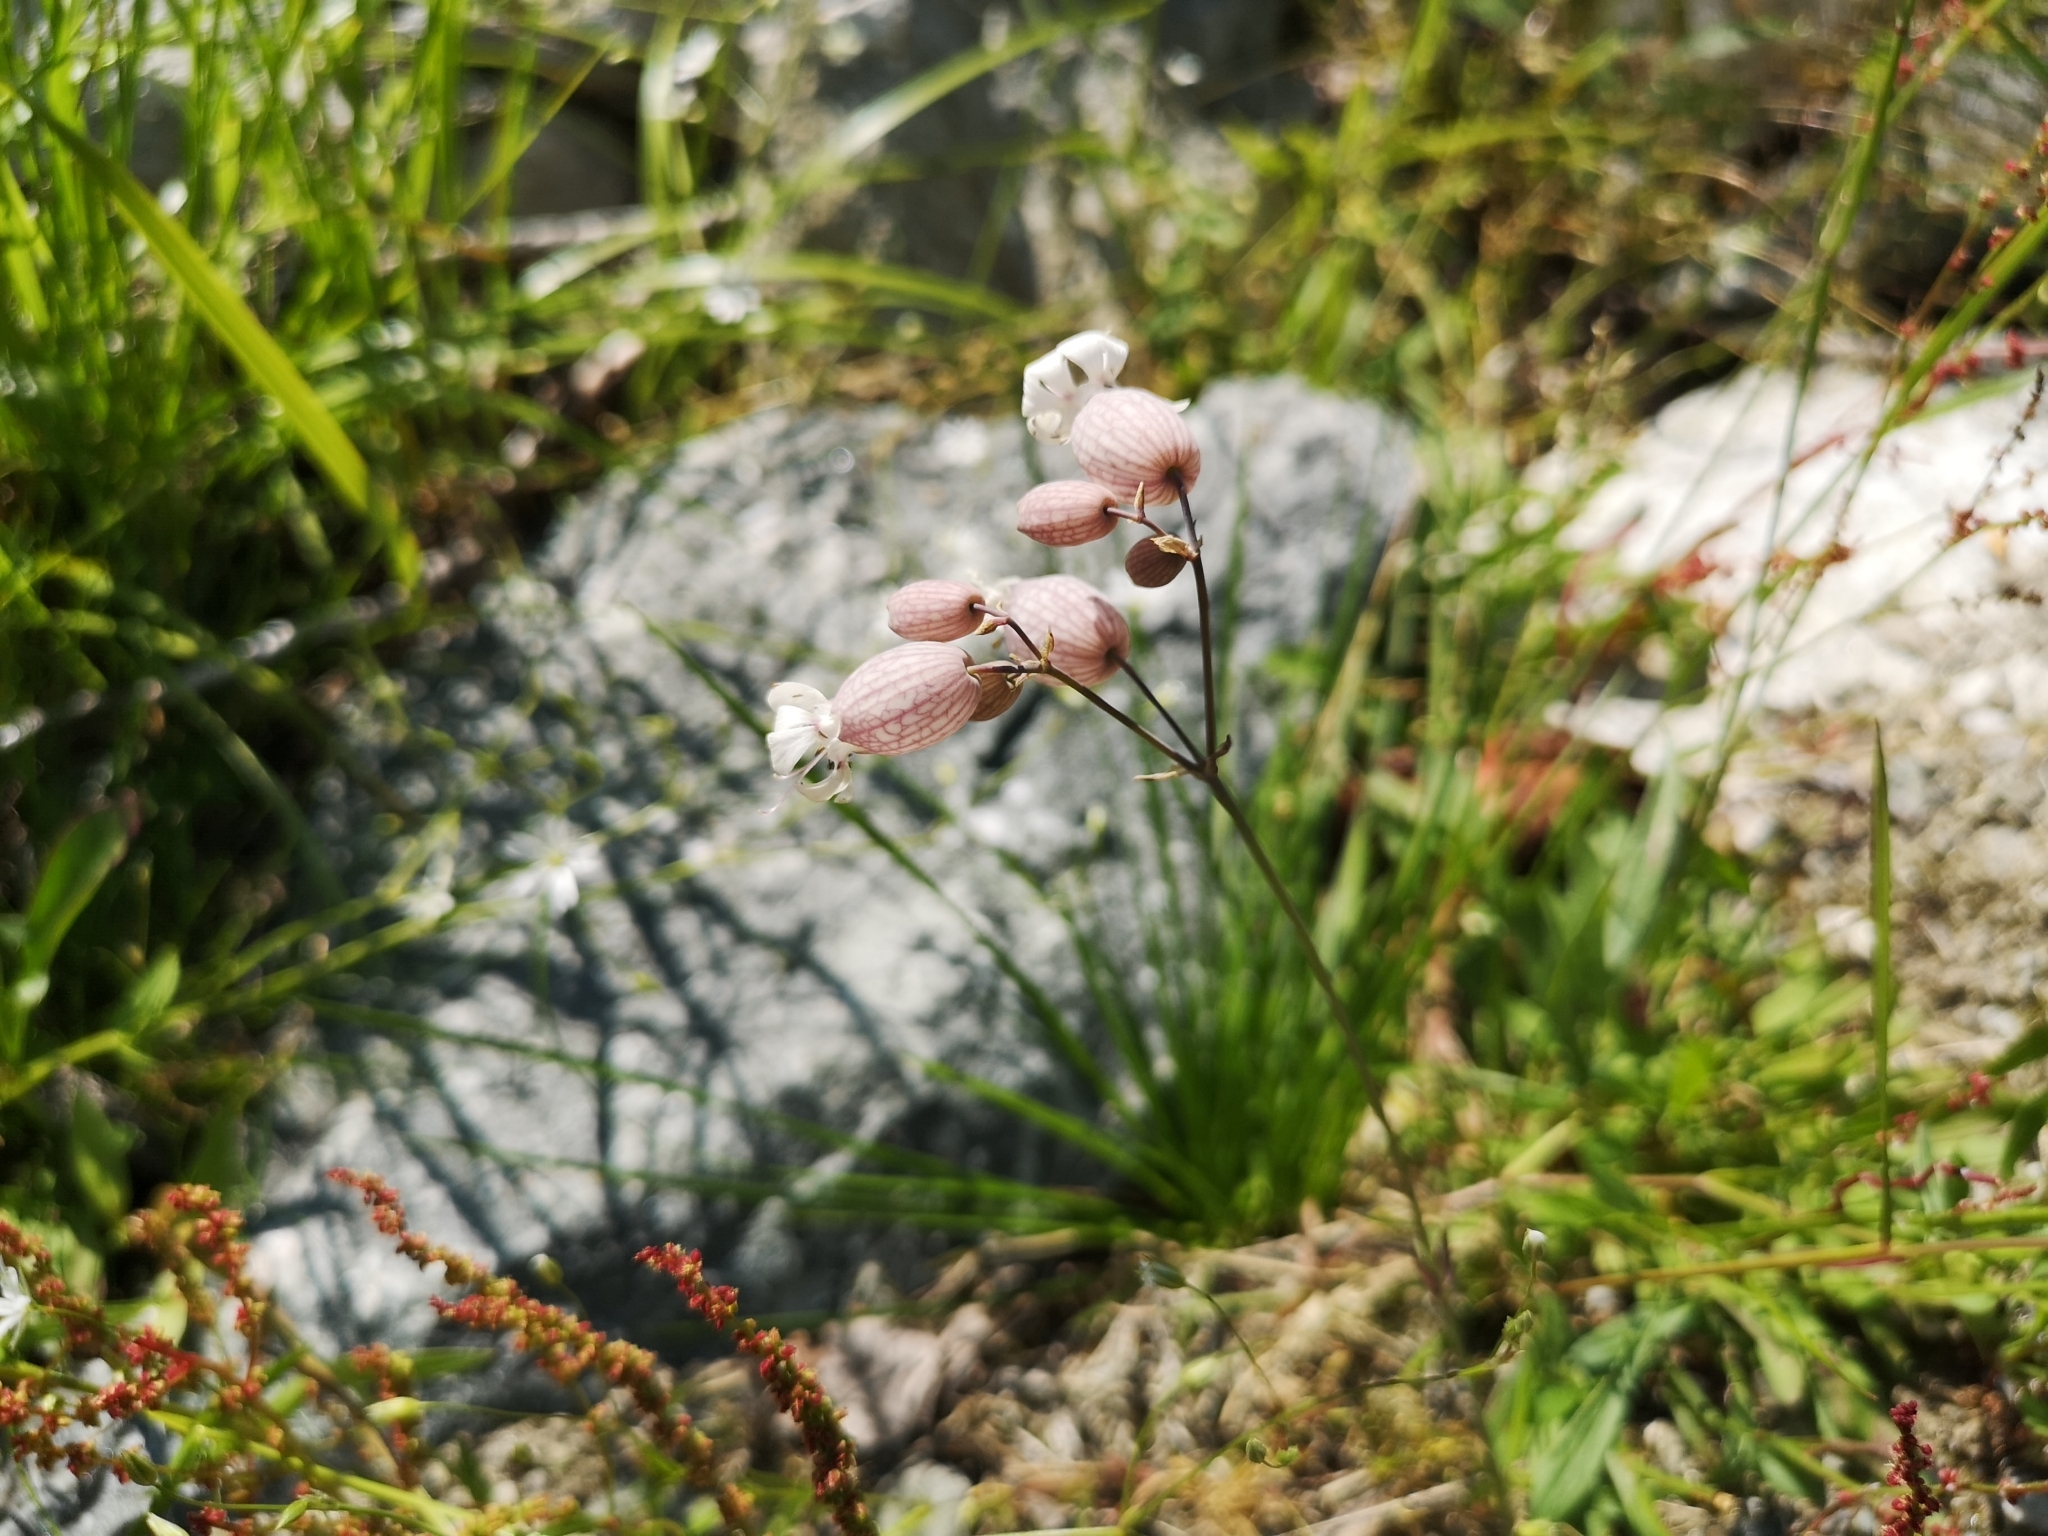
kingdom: Plantae
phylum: Tracheophyta
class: Magnoliopsida
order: Caryophyllales
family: Caryophyllaceae
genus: Silene
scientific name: Silene vulgaris
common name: Bladder campion
